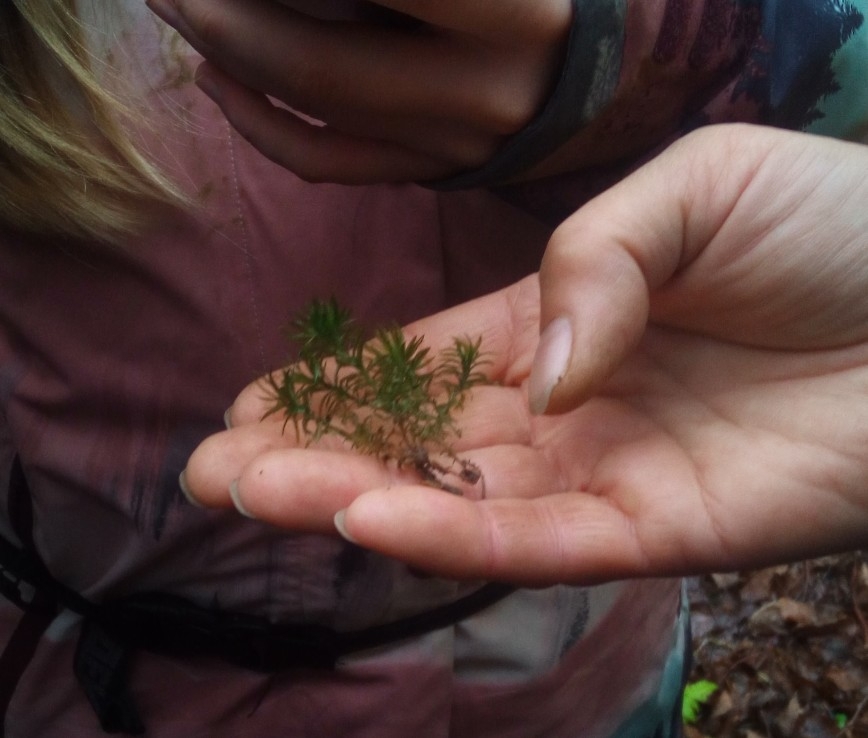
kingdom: Plantae
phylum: Bryophyta
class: Polytrichopsida
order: Polytrichales
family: Polytrichaceae
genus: Atrichum
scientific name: Atrichum undulatum
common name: Common smoothcap
